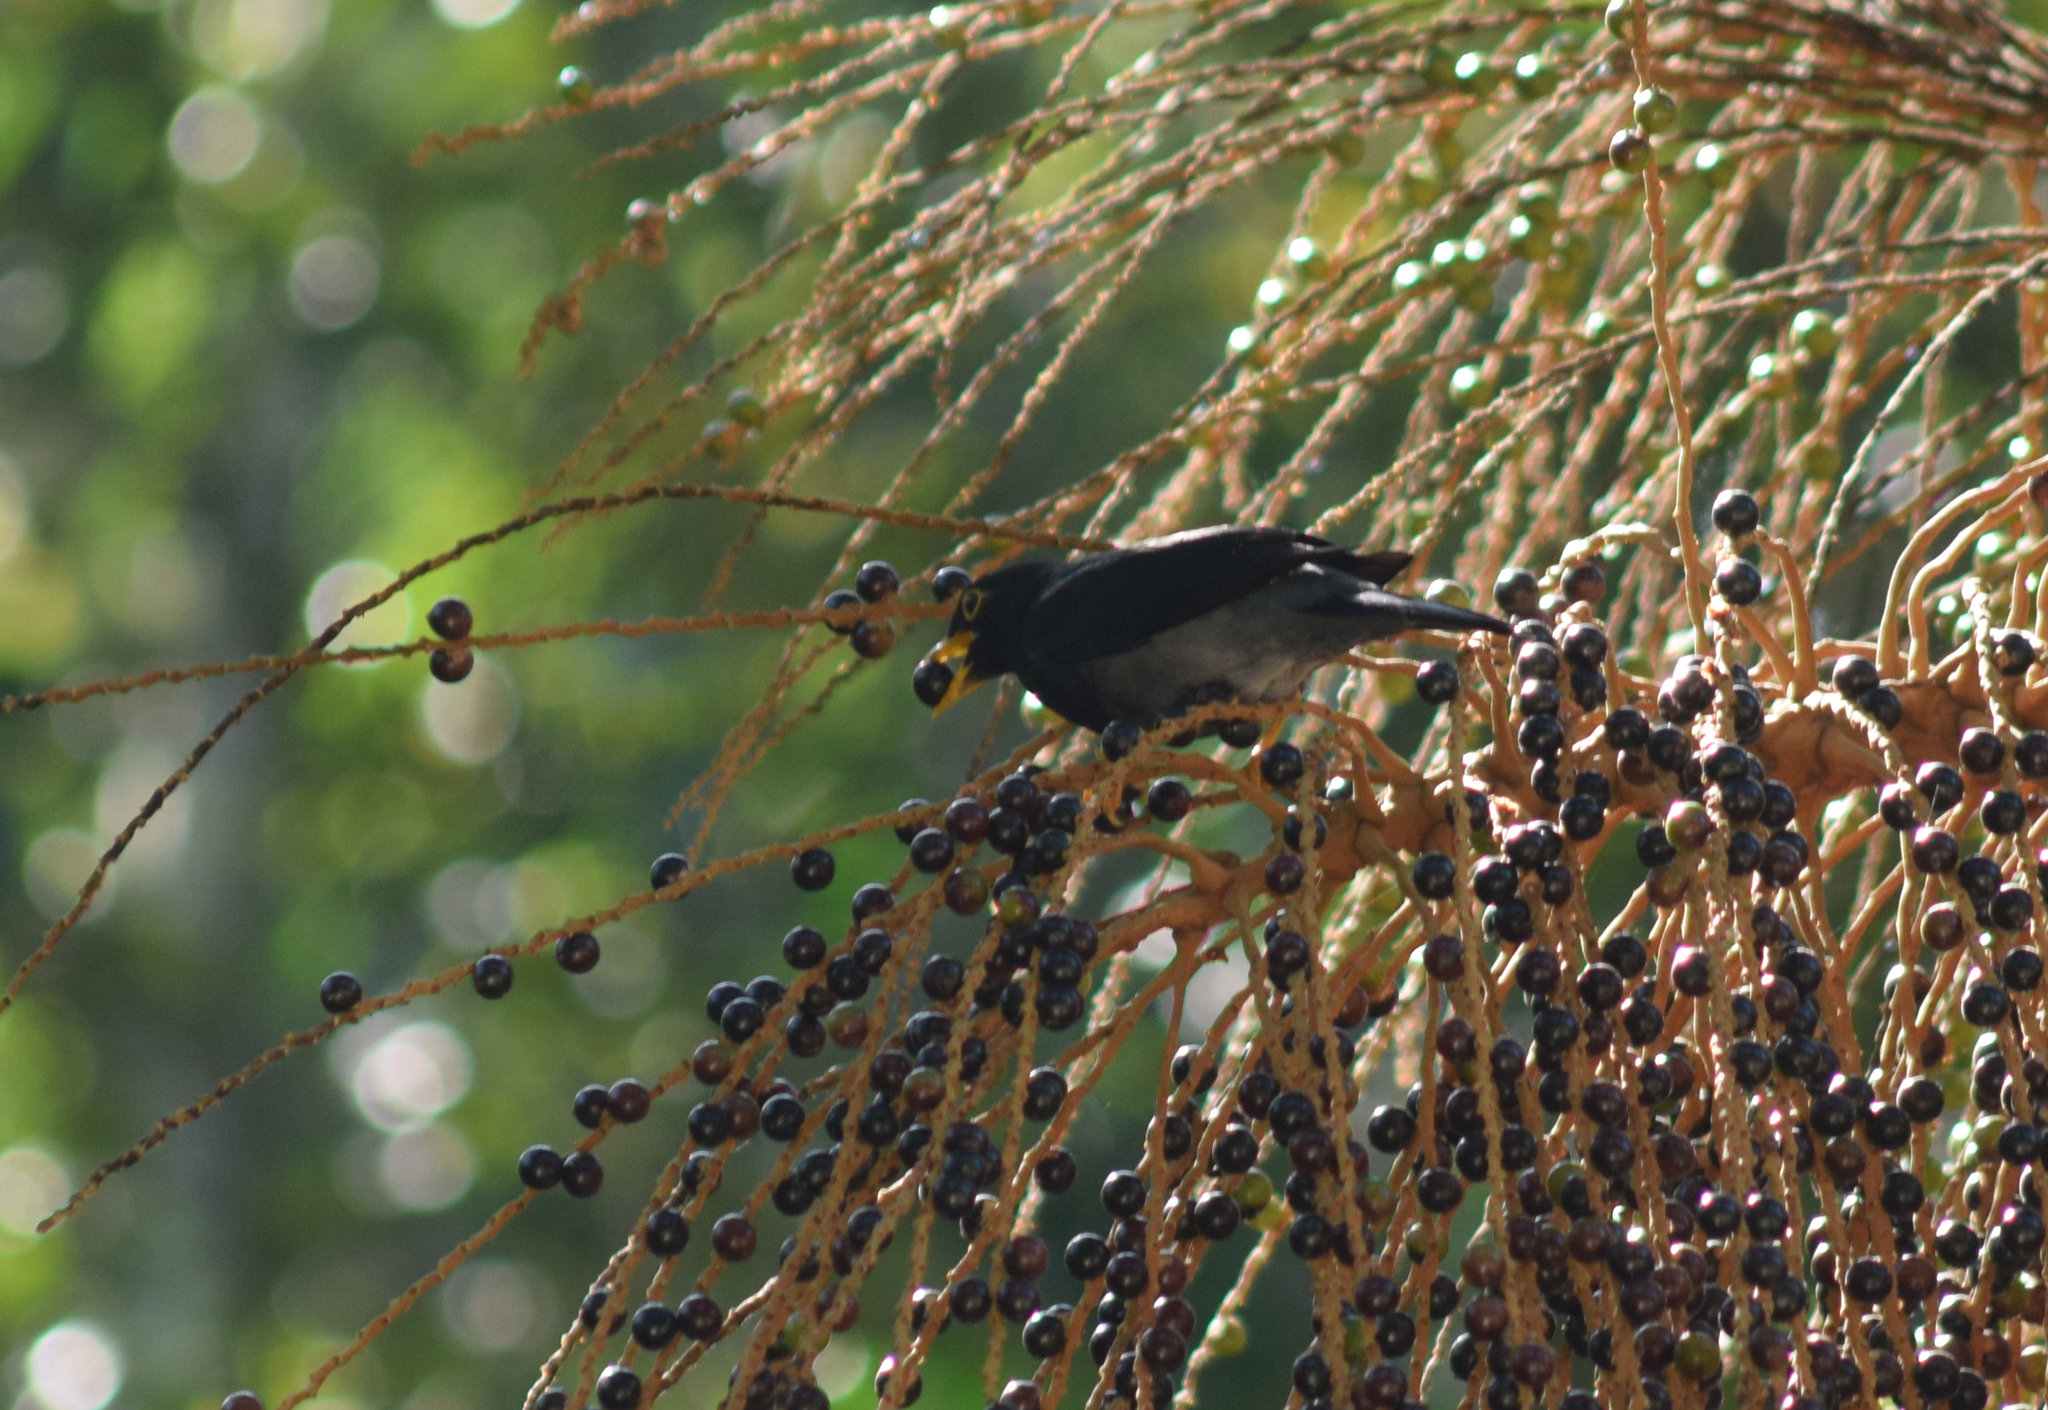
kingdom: Animalia
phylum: Chordata
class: Aves
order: Passeriformes
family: Turdidae
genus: Turdus
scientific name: Turdus flavipes
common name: Yellow-legged thrush
